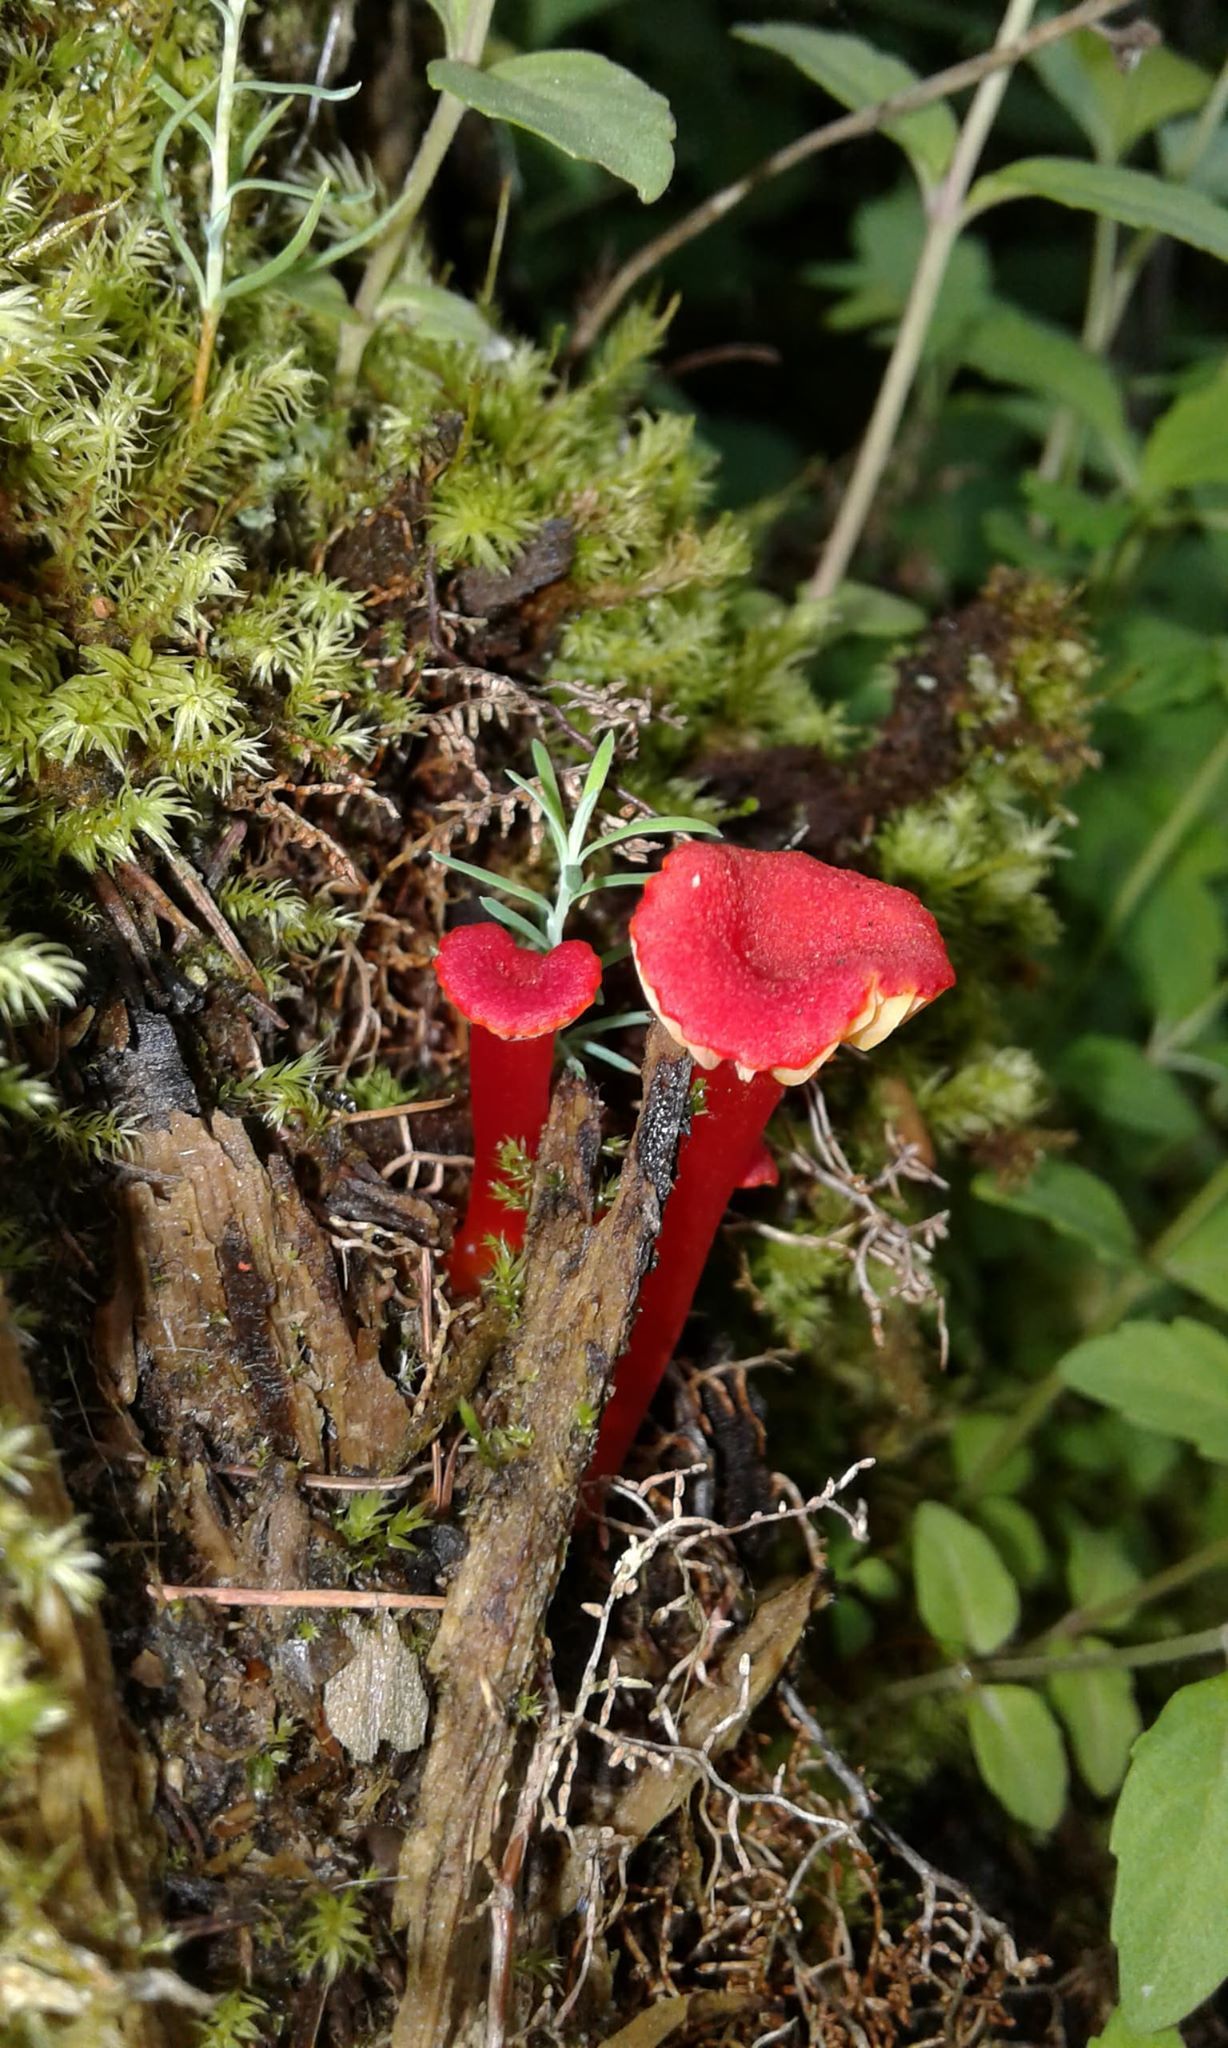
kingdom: Fungi
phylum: Basidiomycota
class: Agaricomycetes
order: Agaricales
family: Hygrophoraceae
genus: Hygrocybe
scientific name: Hygrocybe coccineocrenata
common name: Bog waxcap
